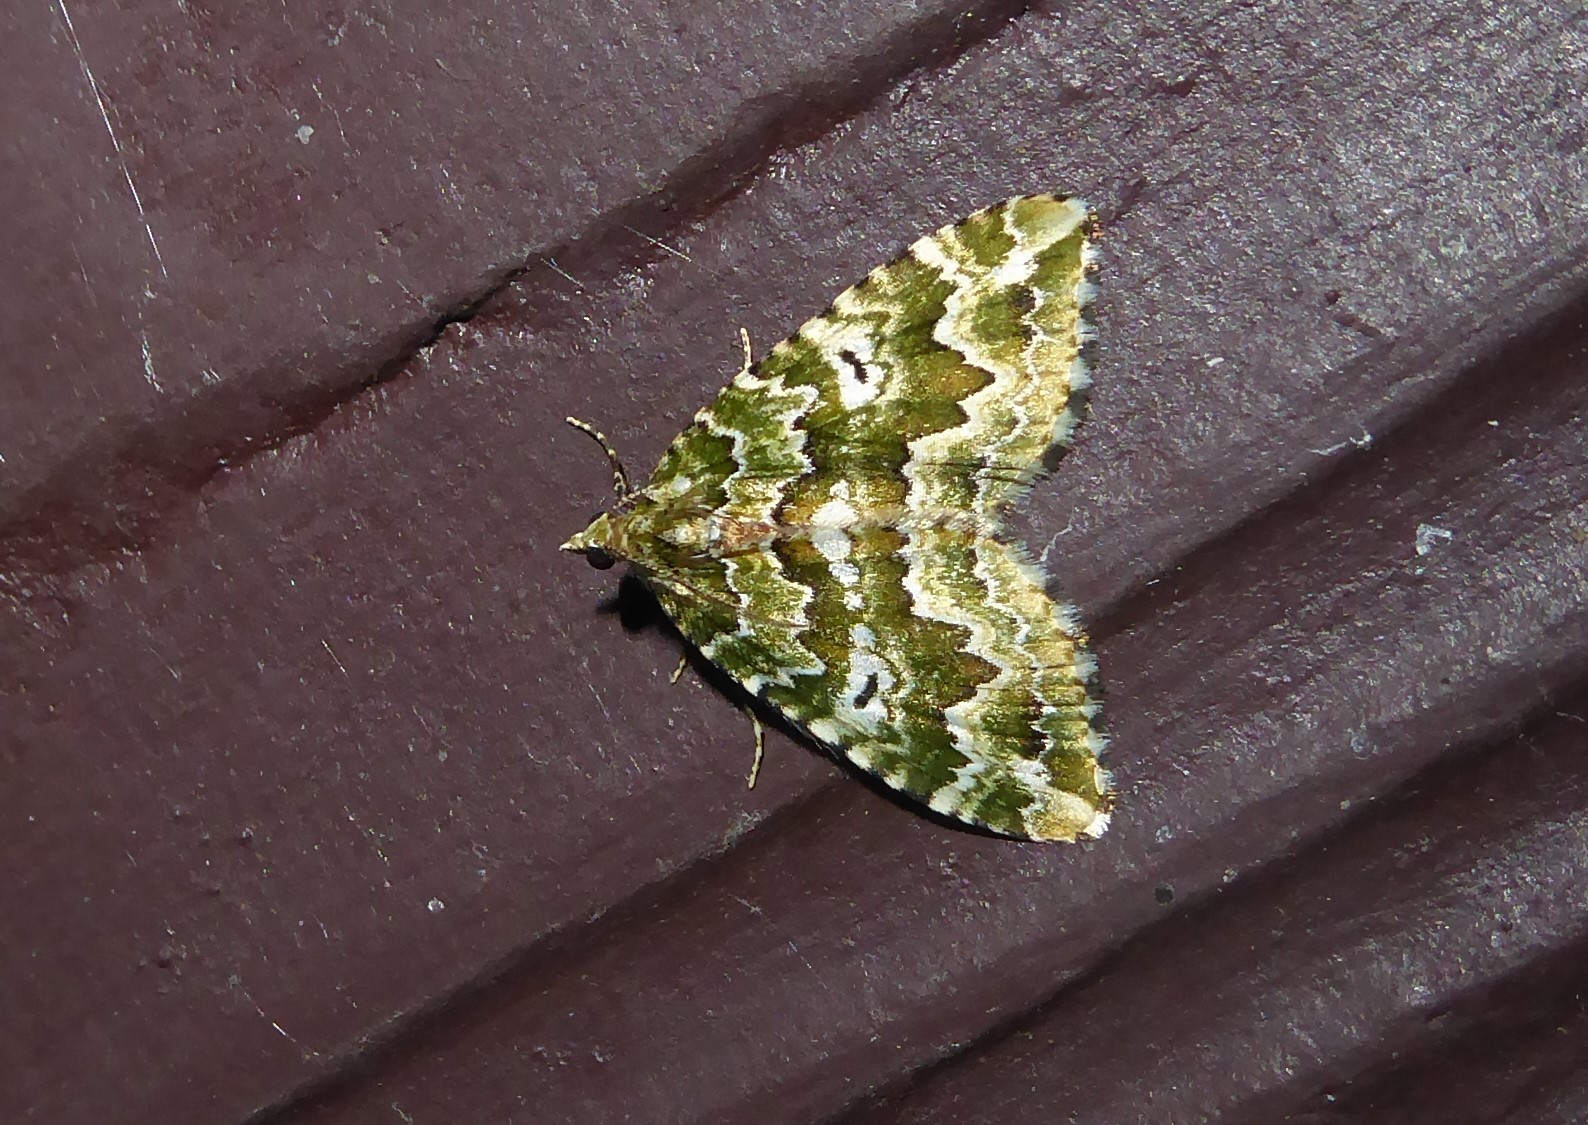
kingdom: Animalia
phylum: Arthropoda
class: Insecta
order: Lepidoptera
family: Geometridae
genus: Asaphodes
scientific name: Asaphodes beata
